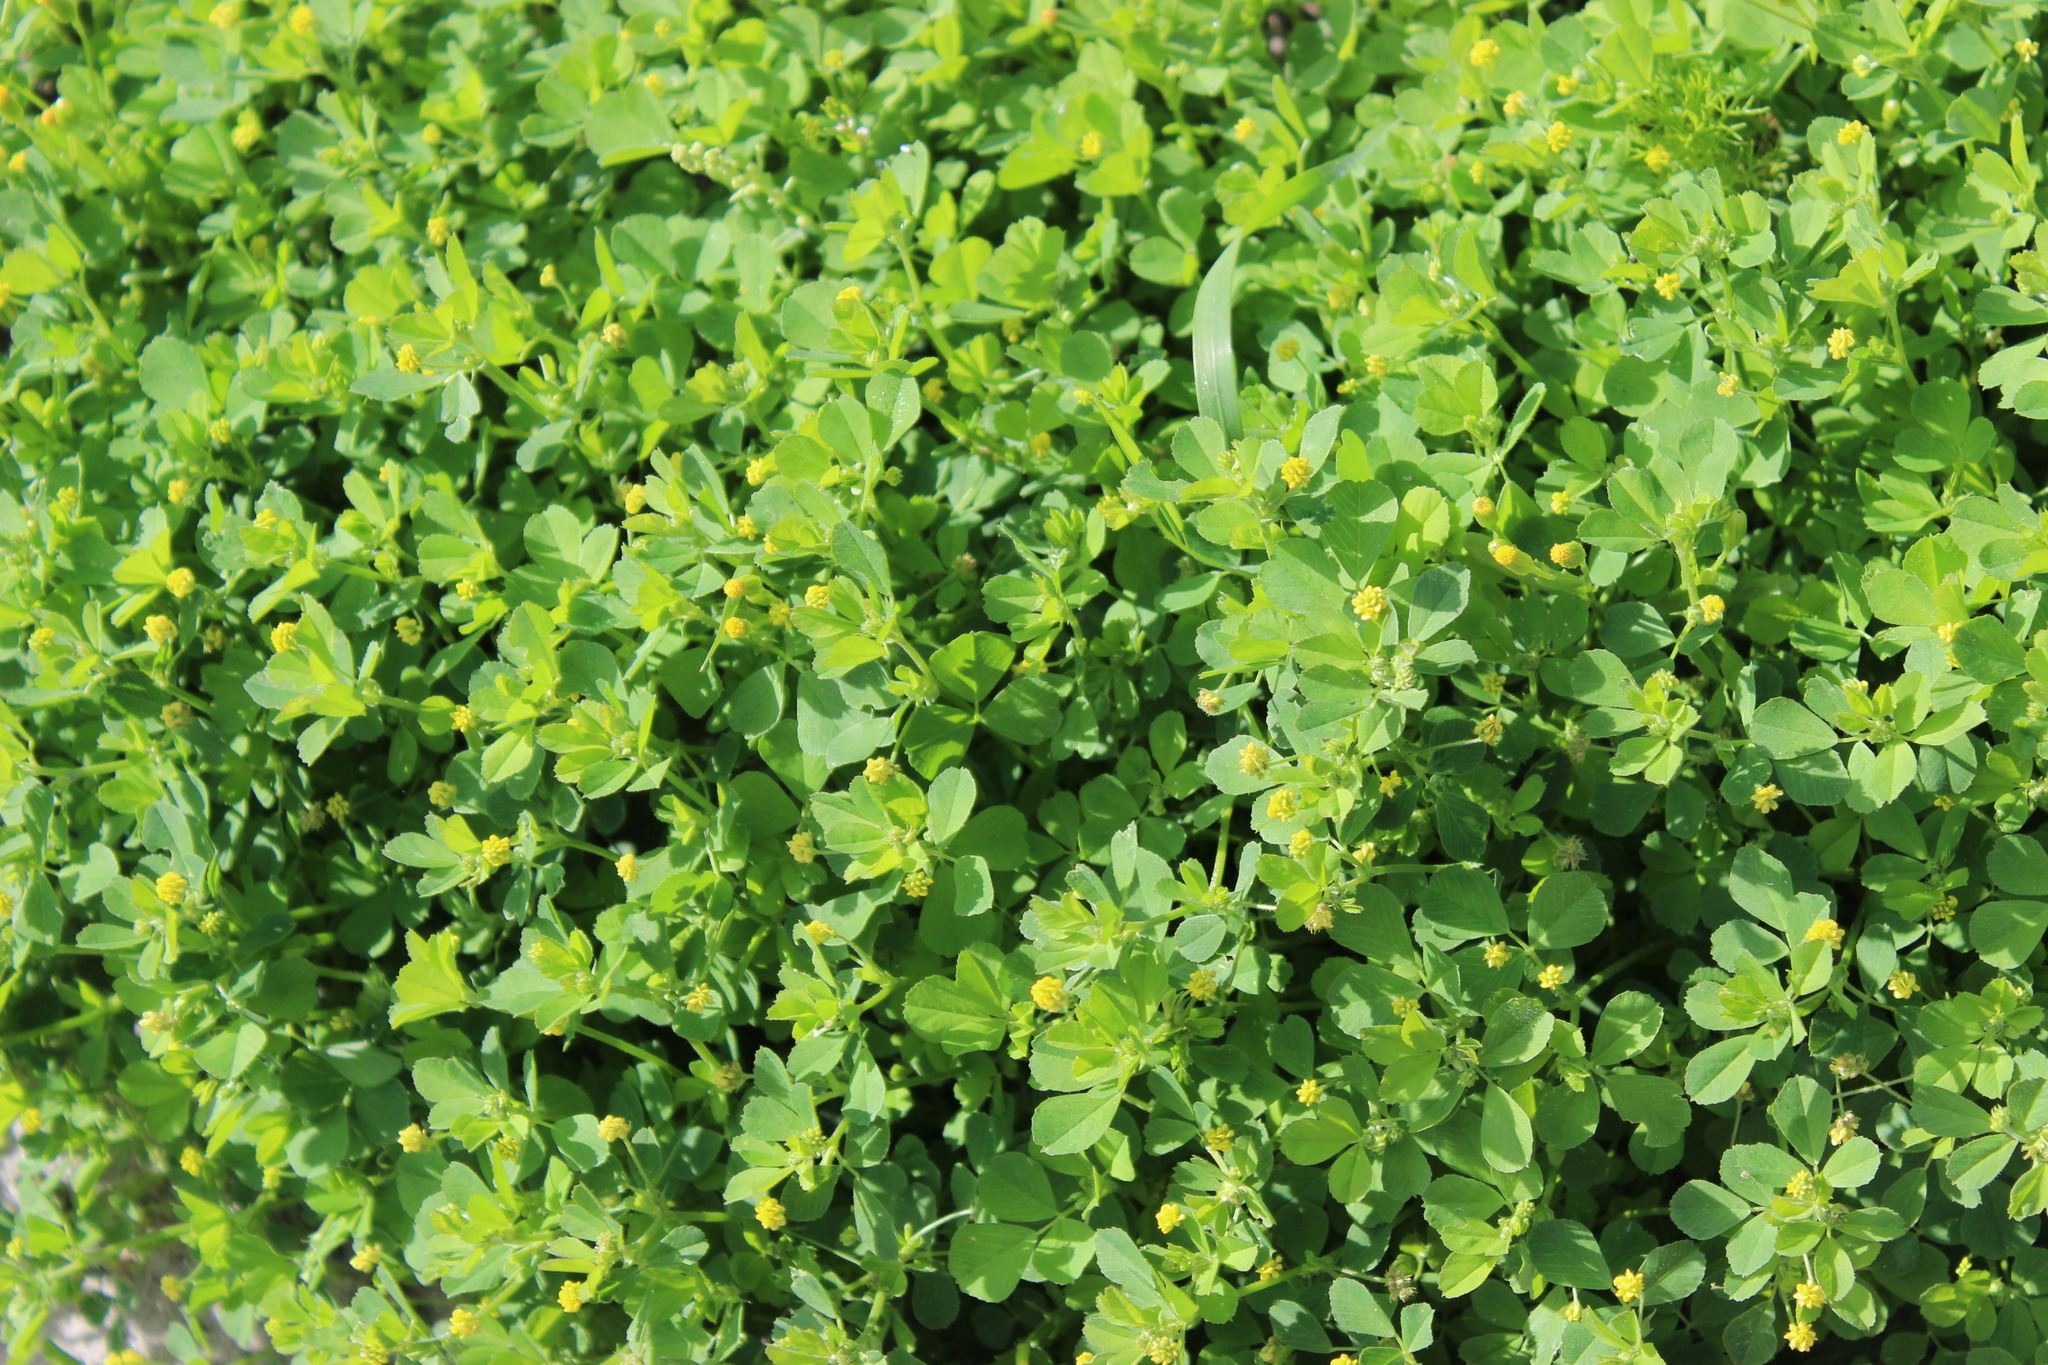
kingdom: Plantae
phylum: Tracheophyta
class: Magnoliopsida
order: Fabales
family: Fabaceae
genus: Medicago
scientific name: Medicago lupulina
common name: Black medick
